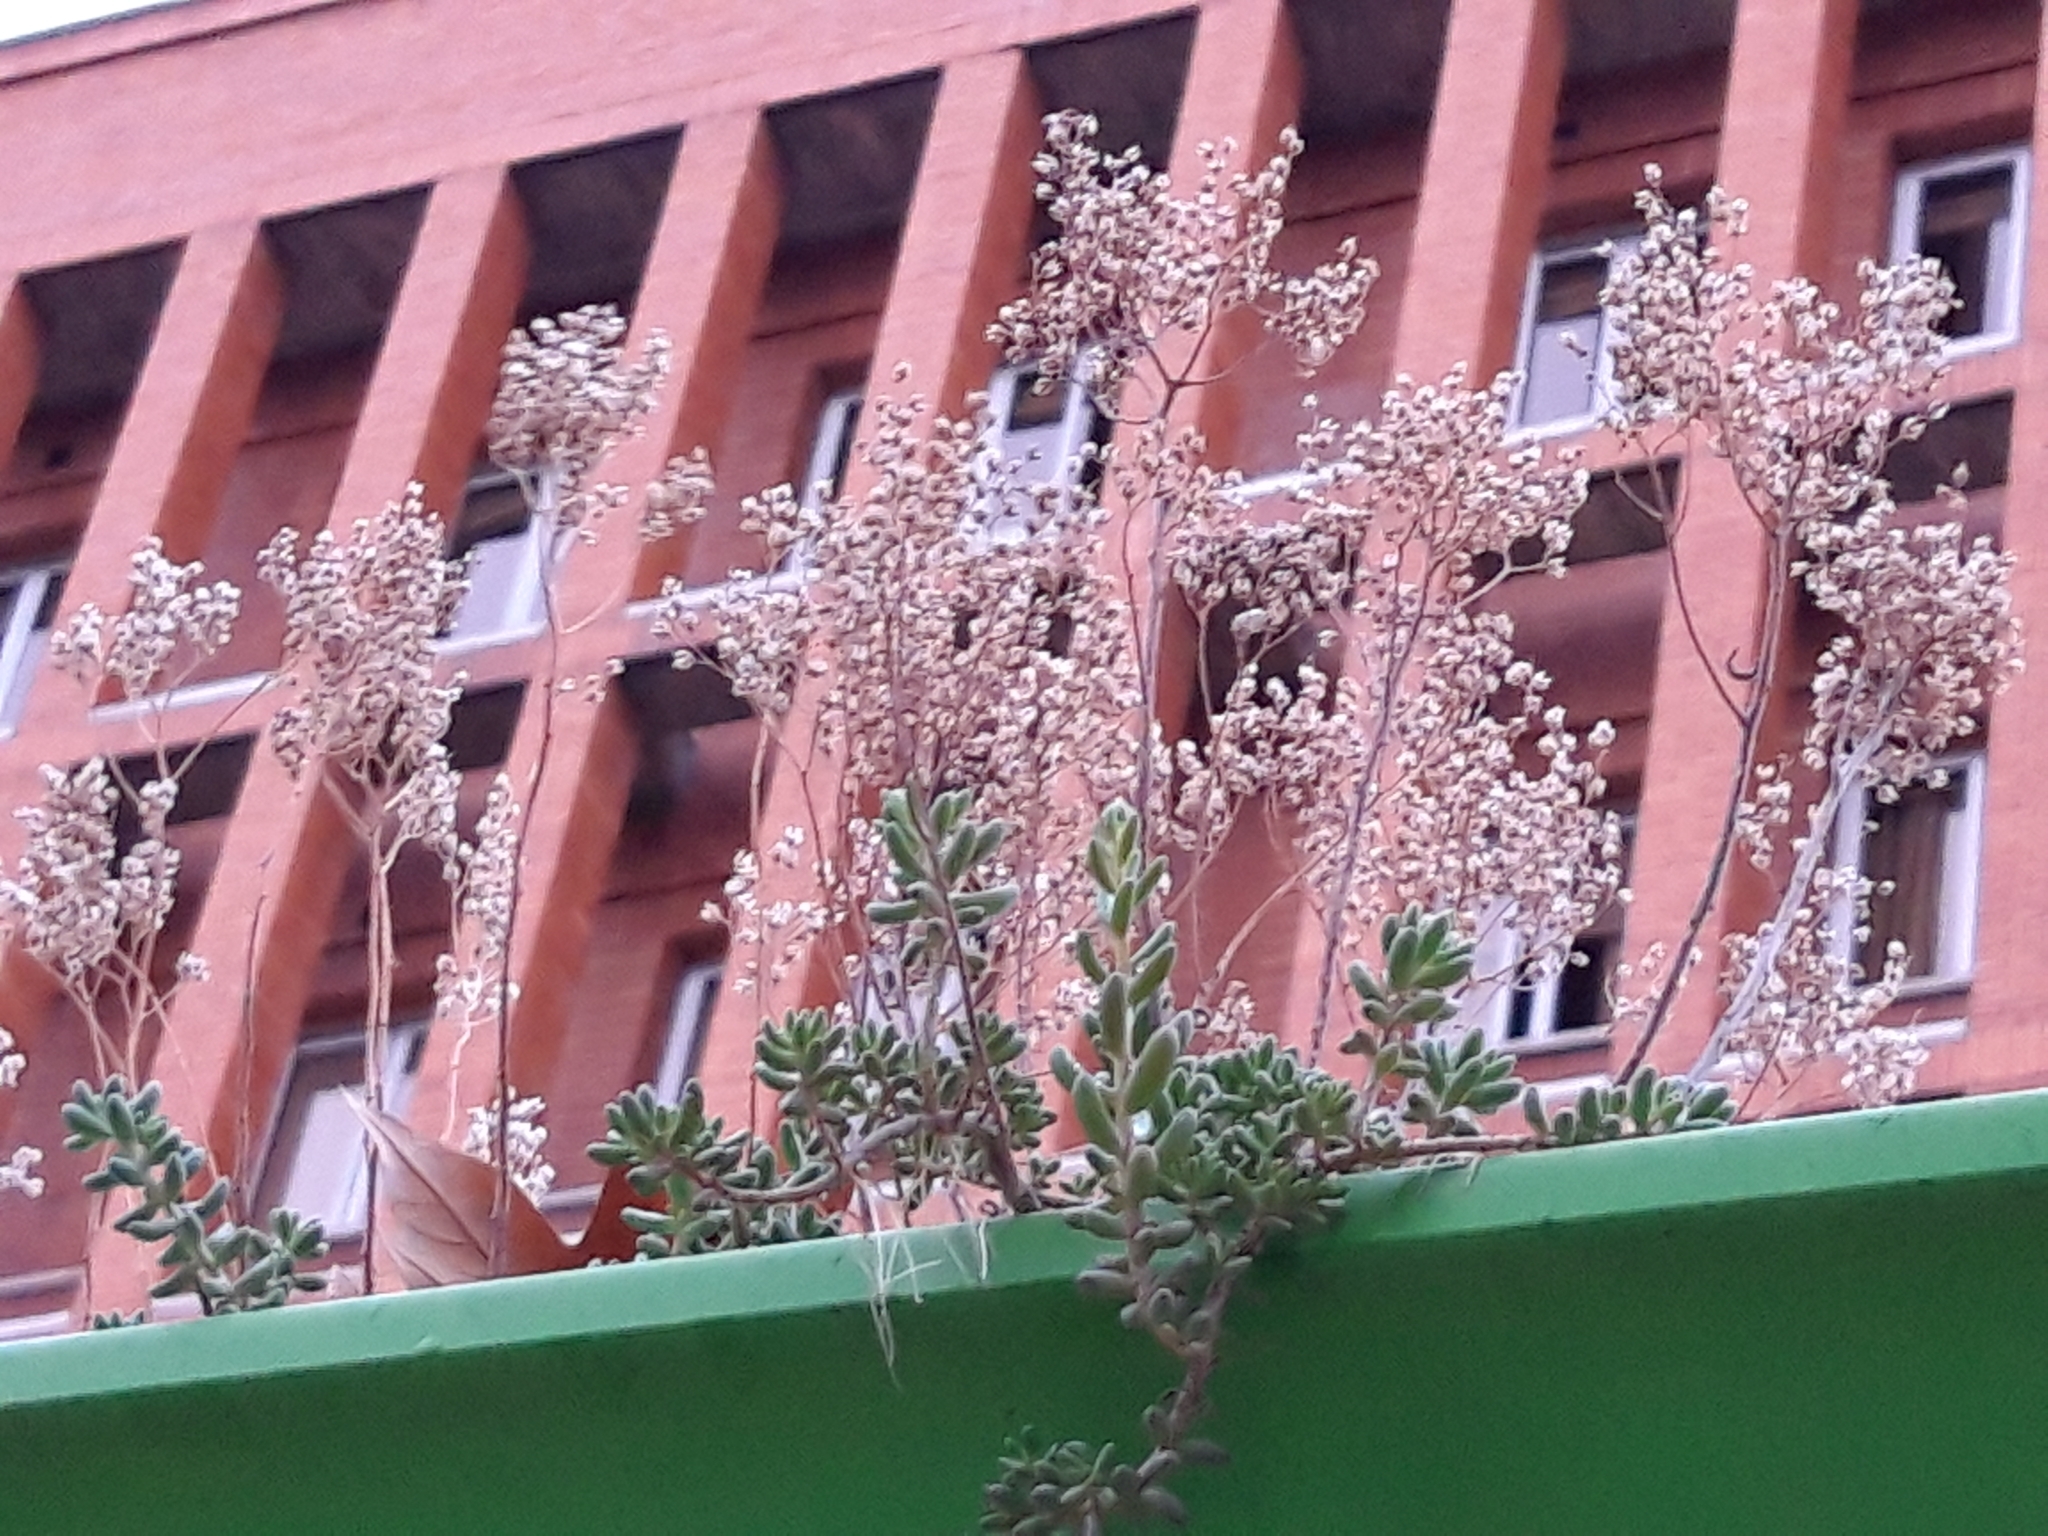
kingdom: Plantae
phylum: Tracheophyta
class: Magnoliopsida
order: Saxifragales
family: Crassulaceae
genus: Sedum
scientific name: Sedum album
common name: White stonecrop
